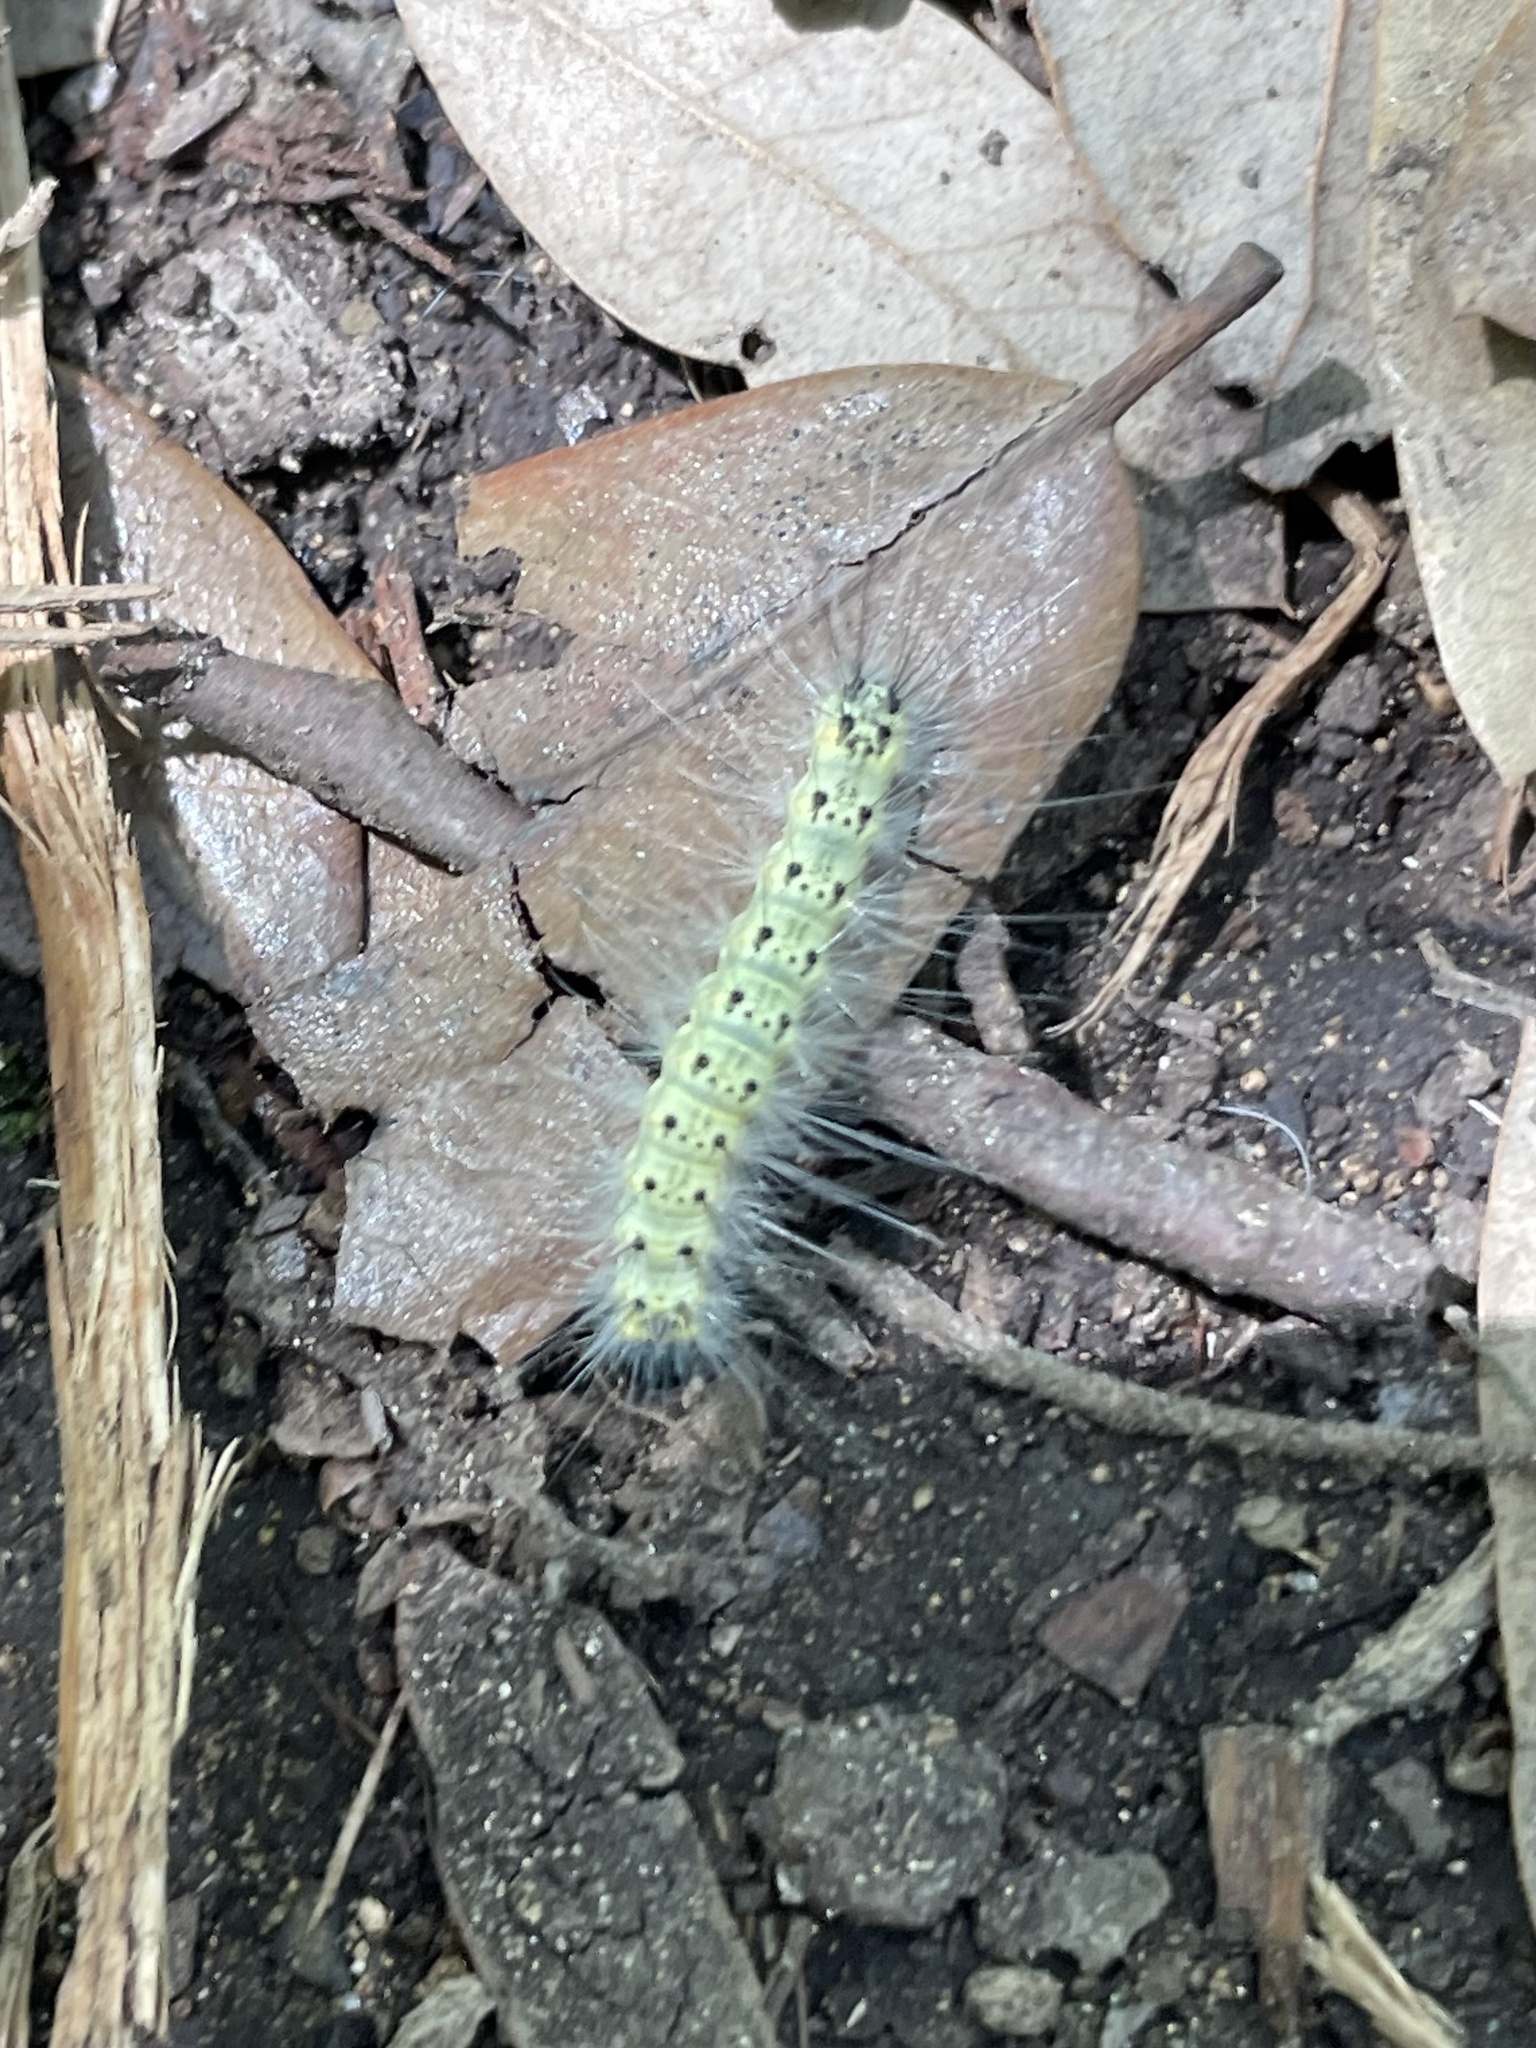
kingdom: Animalia
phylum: Arthropoda
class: Insecta
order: Lepidoptera
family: Erebidae
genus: Hyphantria
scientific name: Hyphantria cunea
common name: American white moth
